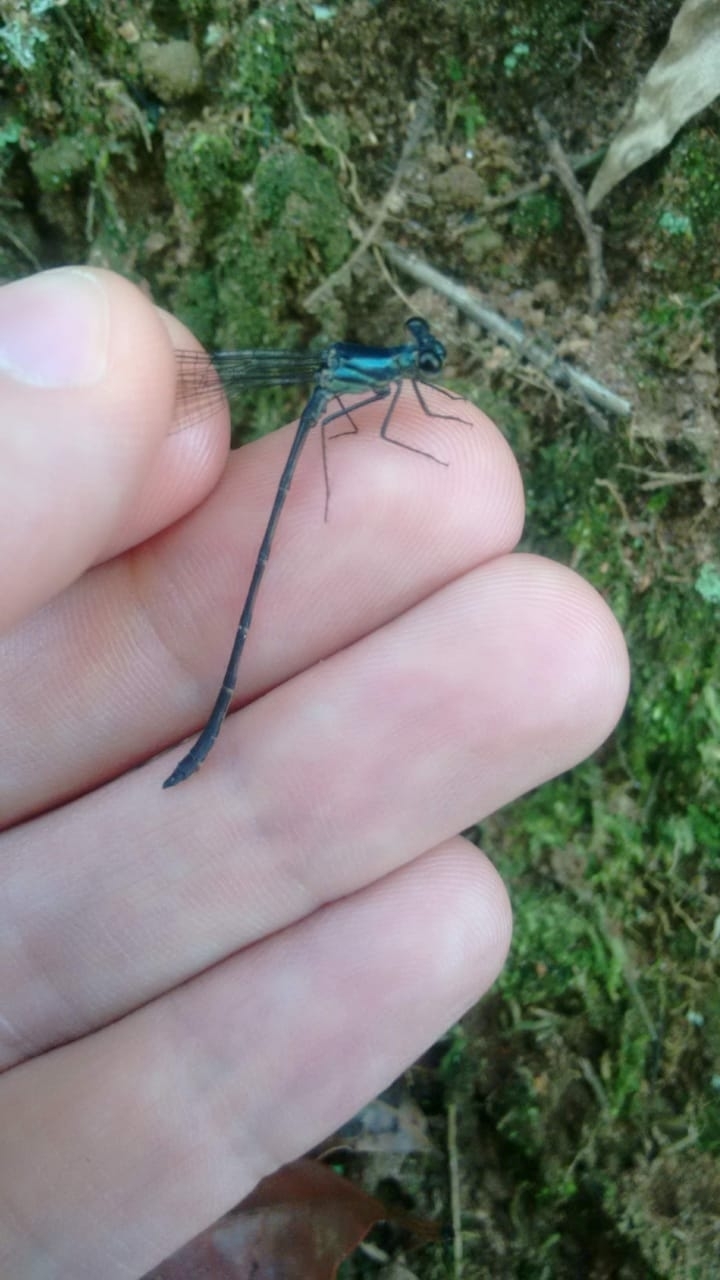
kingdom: Animalia
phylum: Arthropoda
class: Insecta
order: Odonata
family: Heteragrionidae
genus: Heteragrion
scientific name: Heteragrion gorbi
